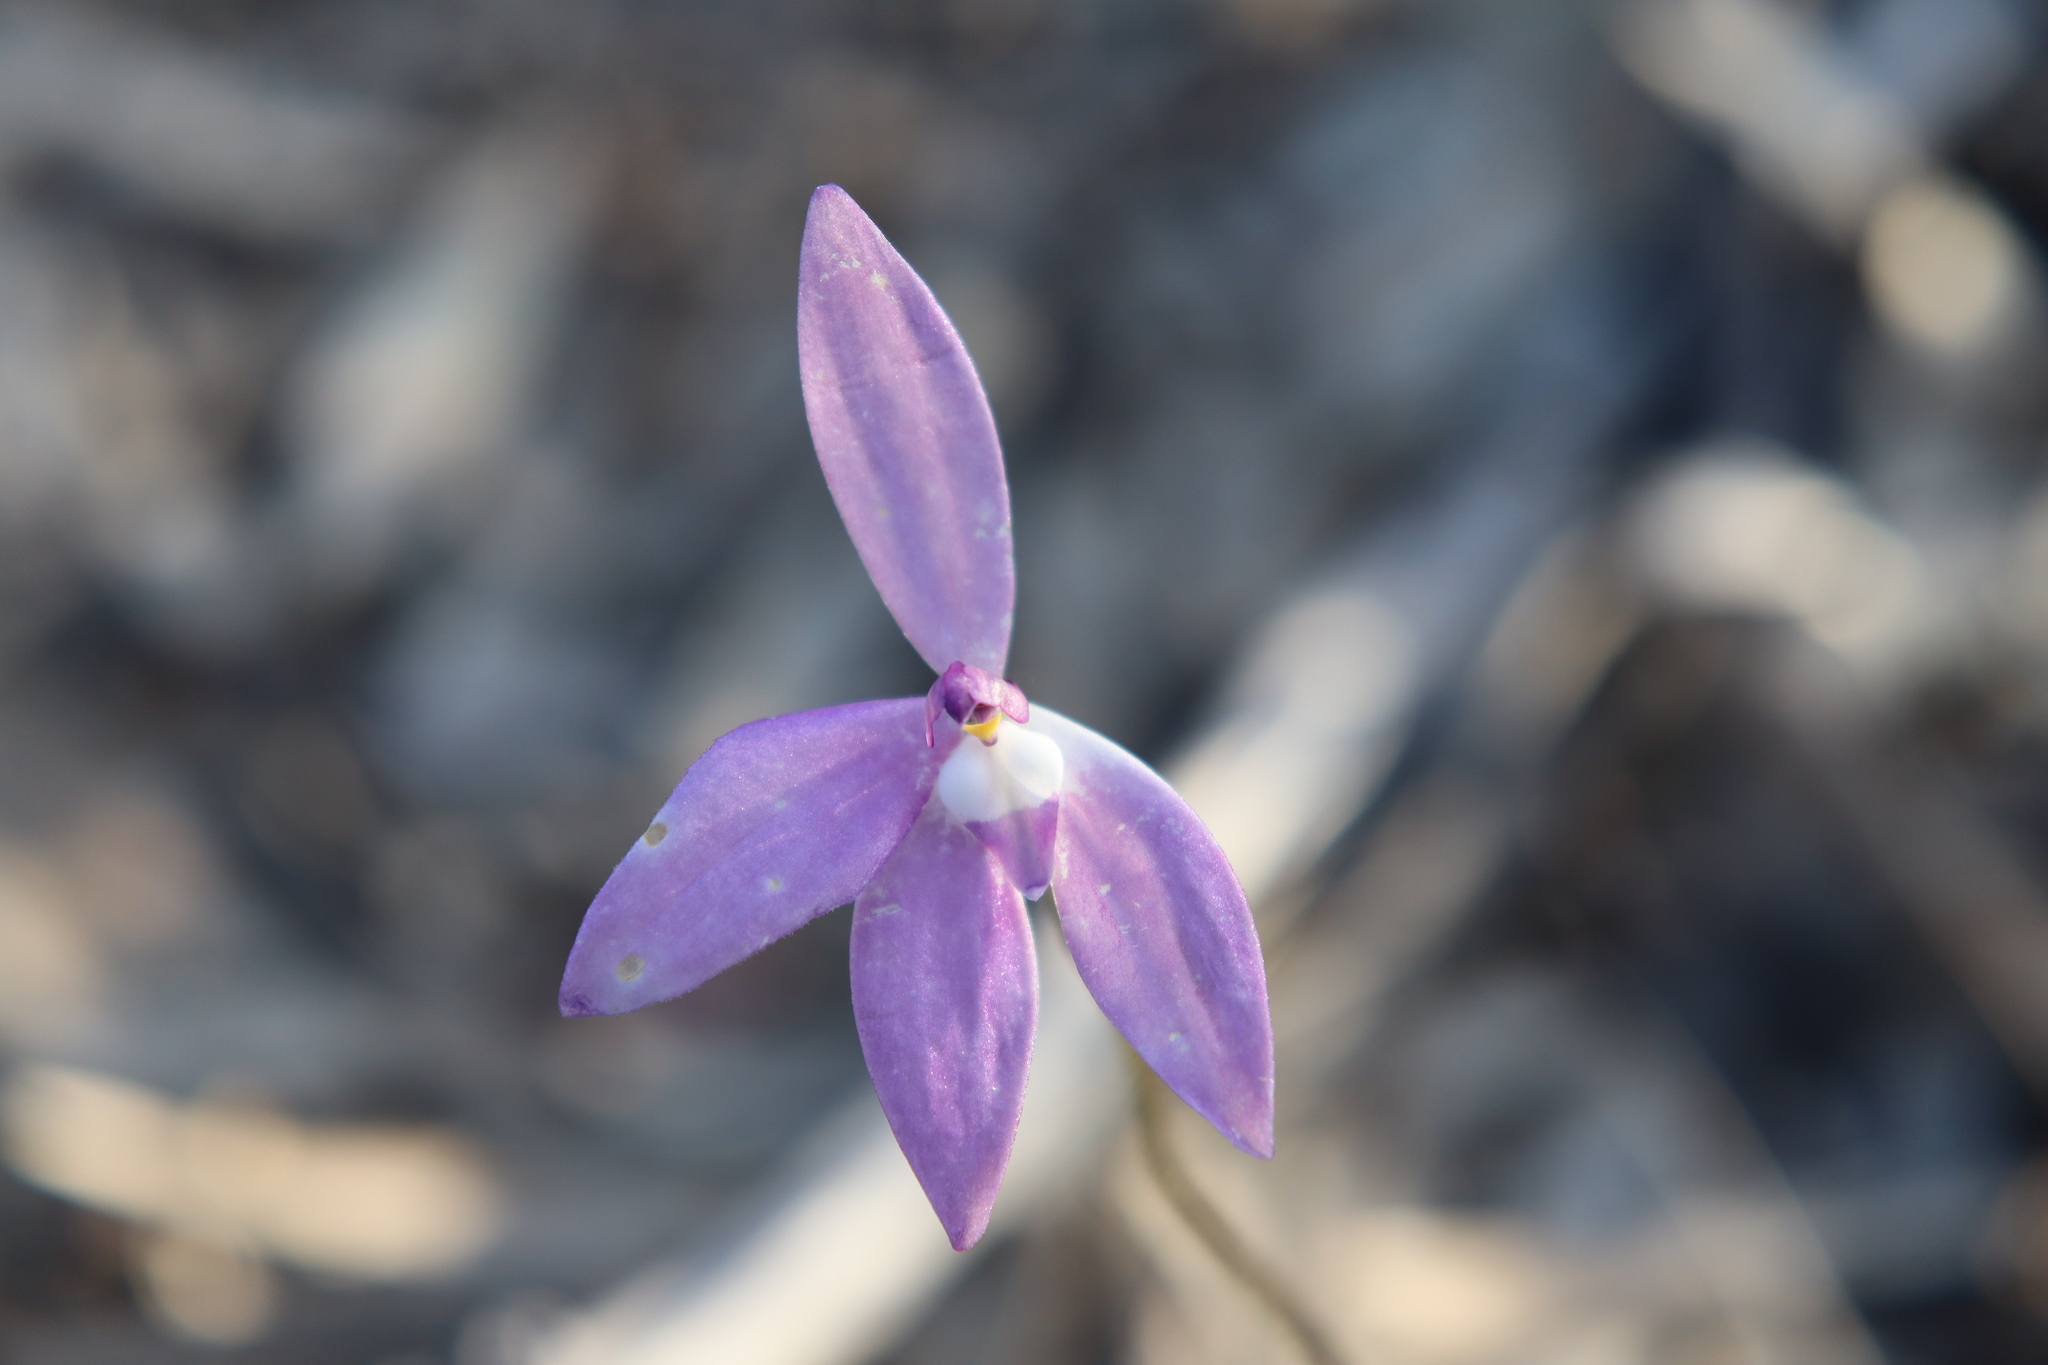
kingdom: Plantae
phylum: Tracheophyta
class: Liliopsida
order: Asparagales
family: Orchidaceae
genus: Caladenia
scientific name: Caladenia major
